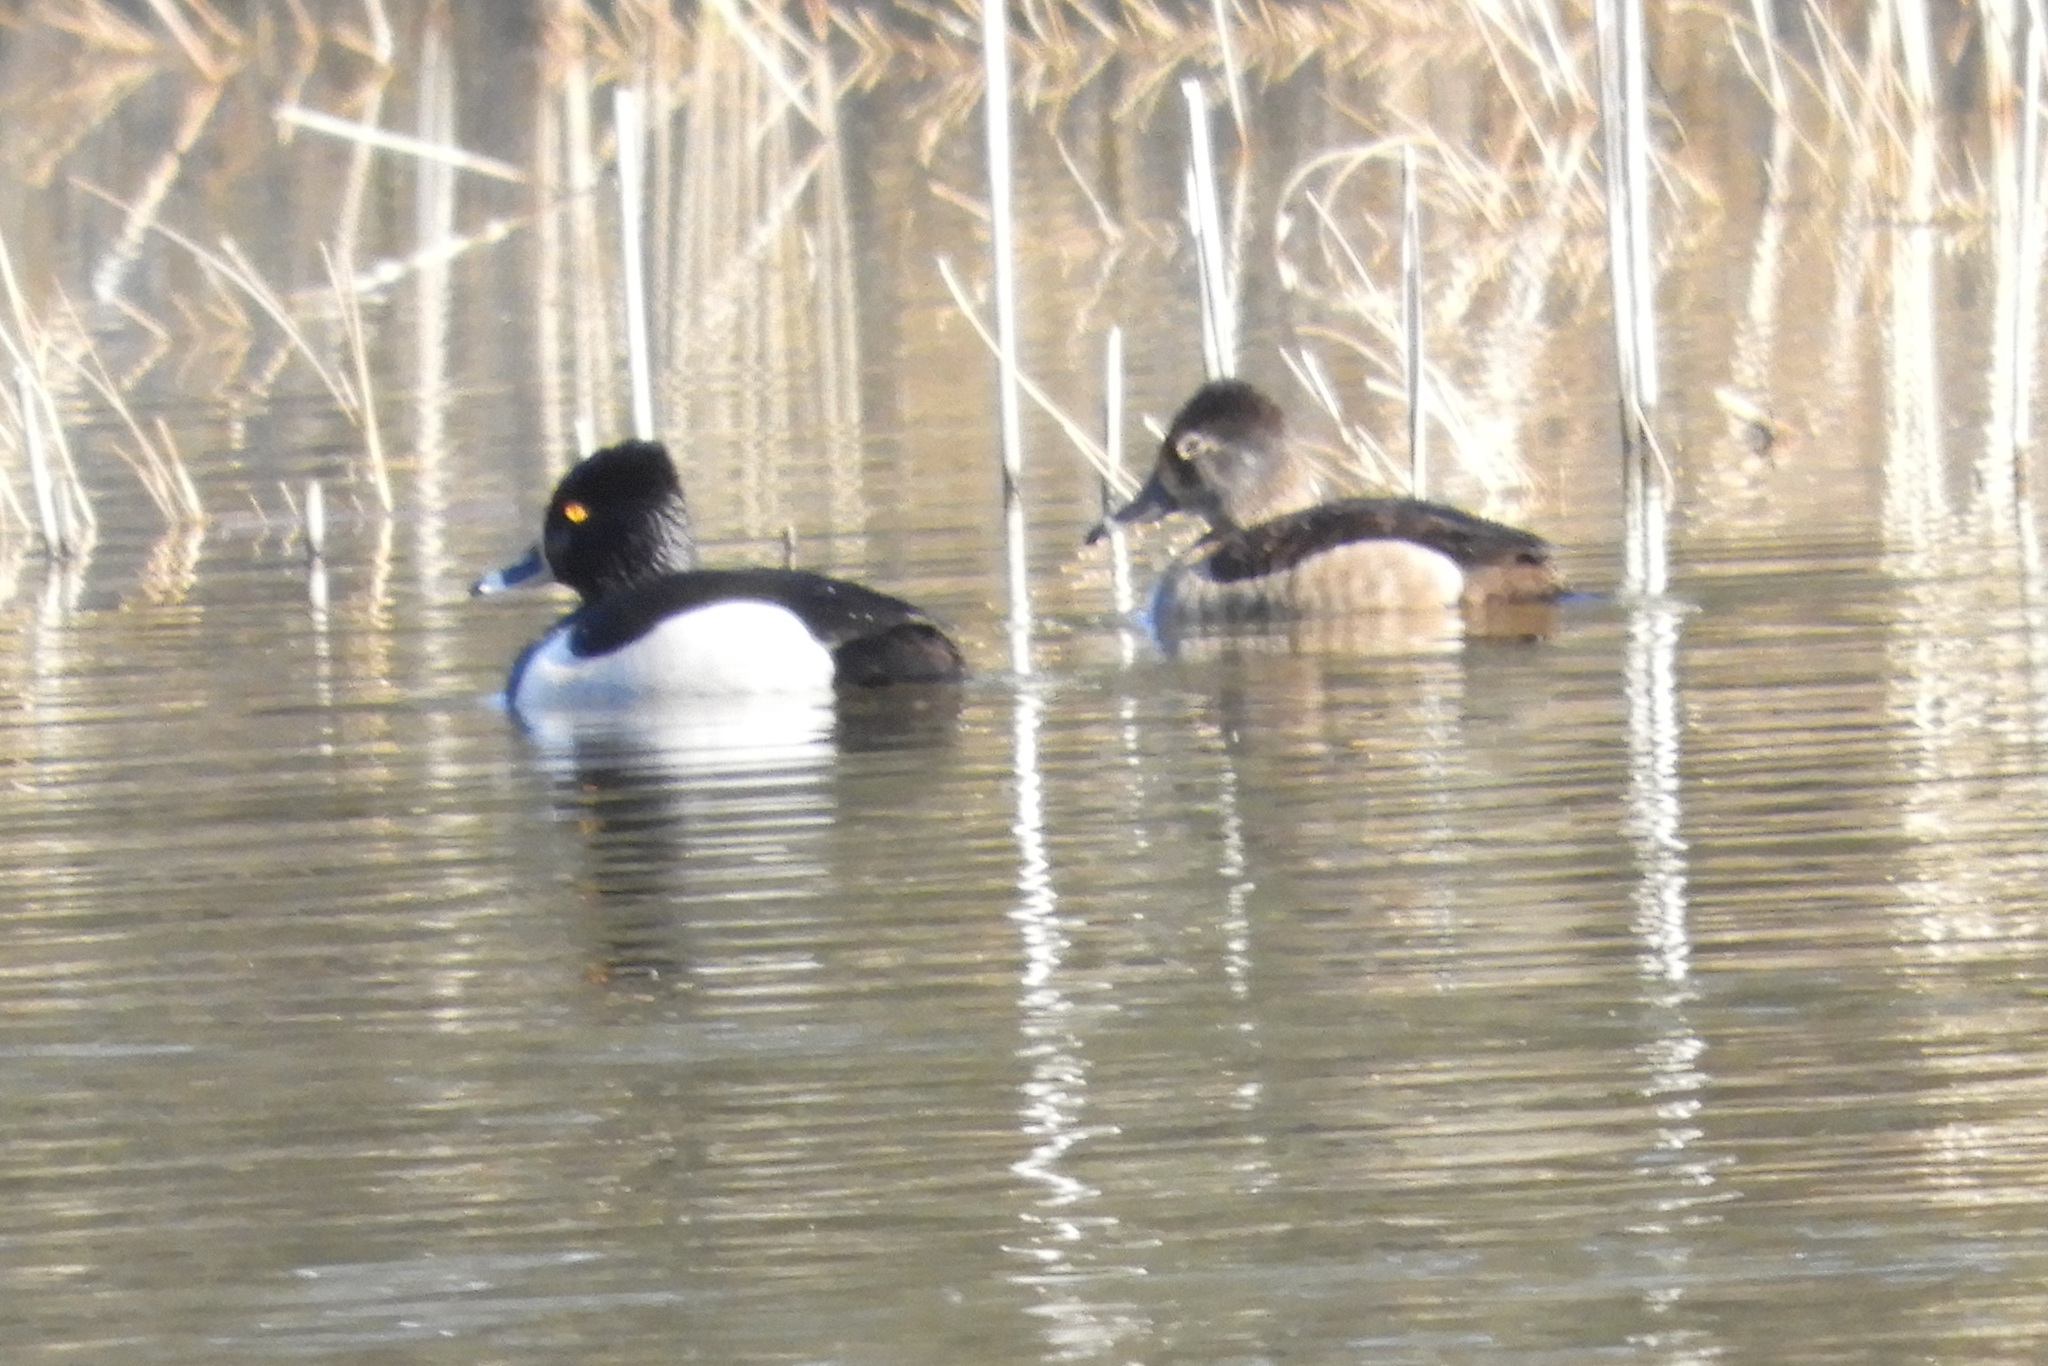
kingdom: Animalia
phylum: Chordata
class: Aves
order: Anseriformes
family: Anatidae
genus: Aythya
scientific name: Aythya collaris
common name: Ring-necked duck
